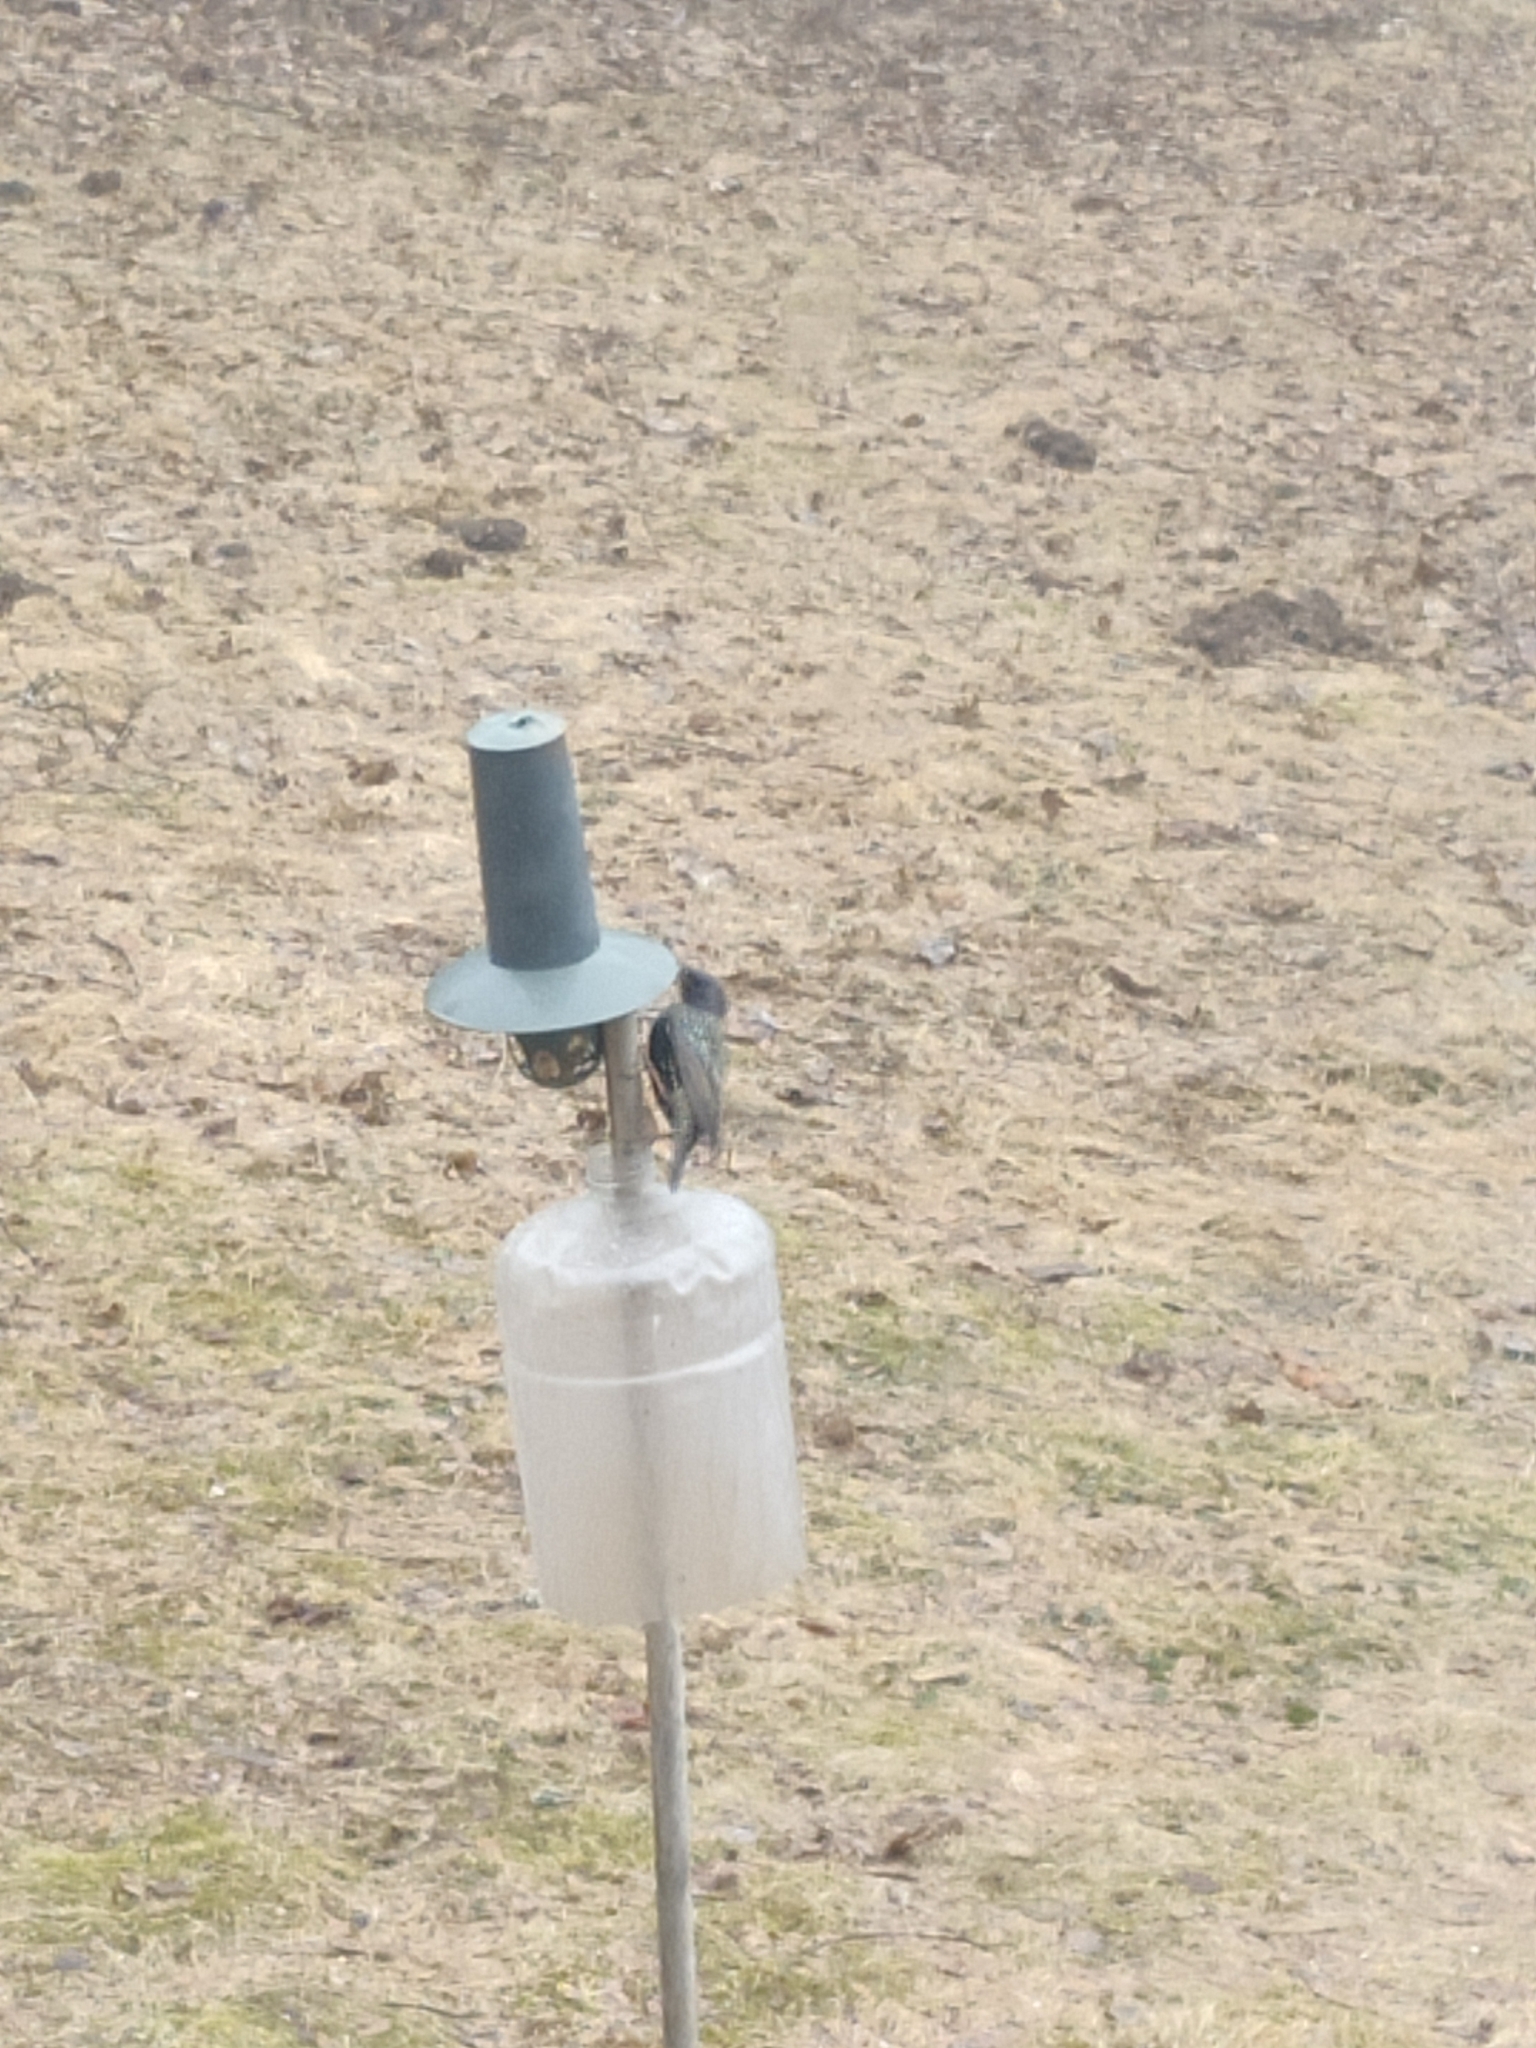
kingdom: Animalia
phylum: Chordata
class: Aves
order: Passeriformes
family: Sturnidae
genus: Sturnus
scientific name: Sturnus vulgaris
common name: Common starling
